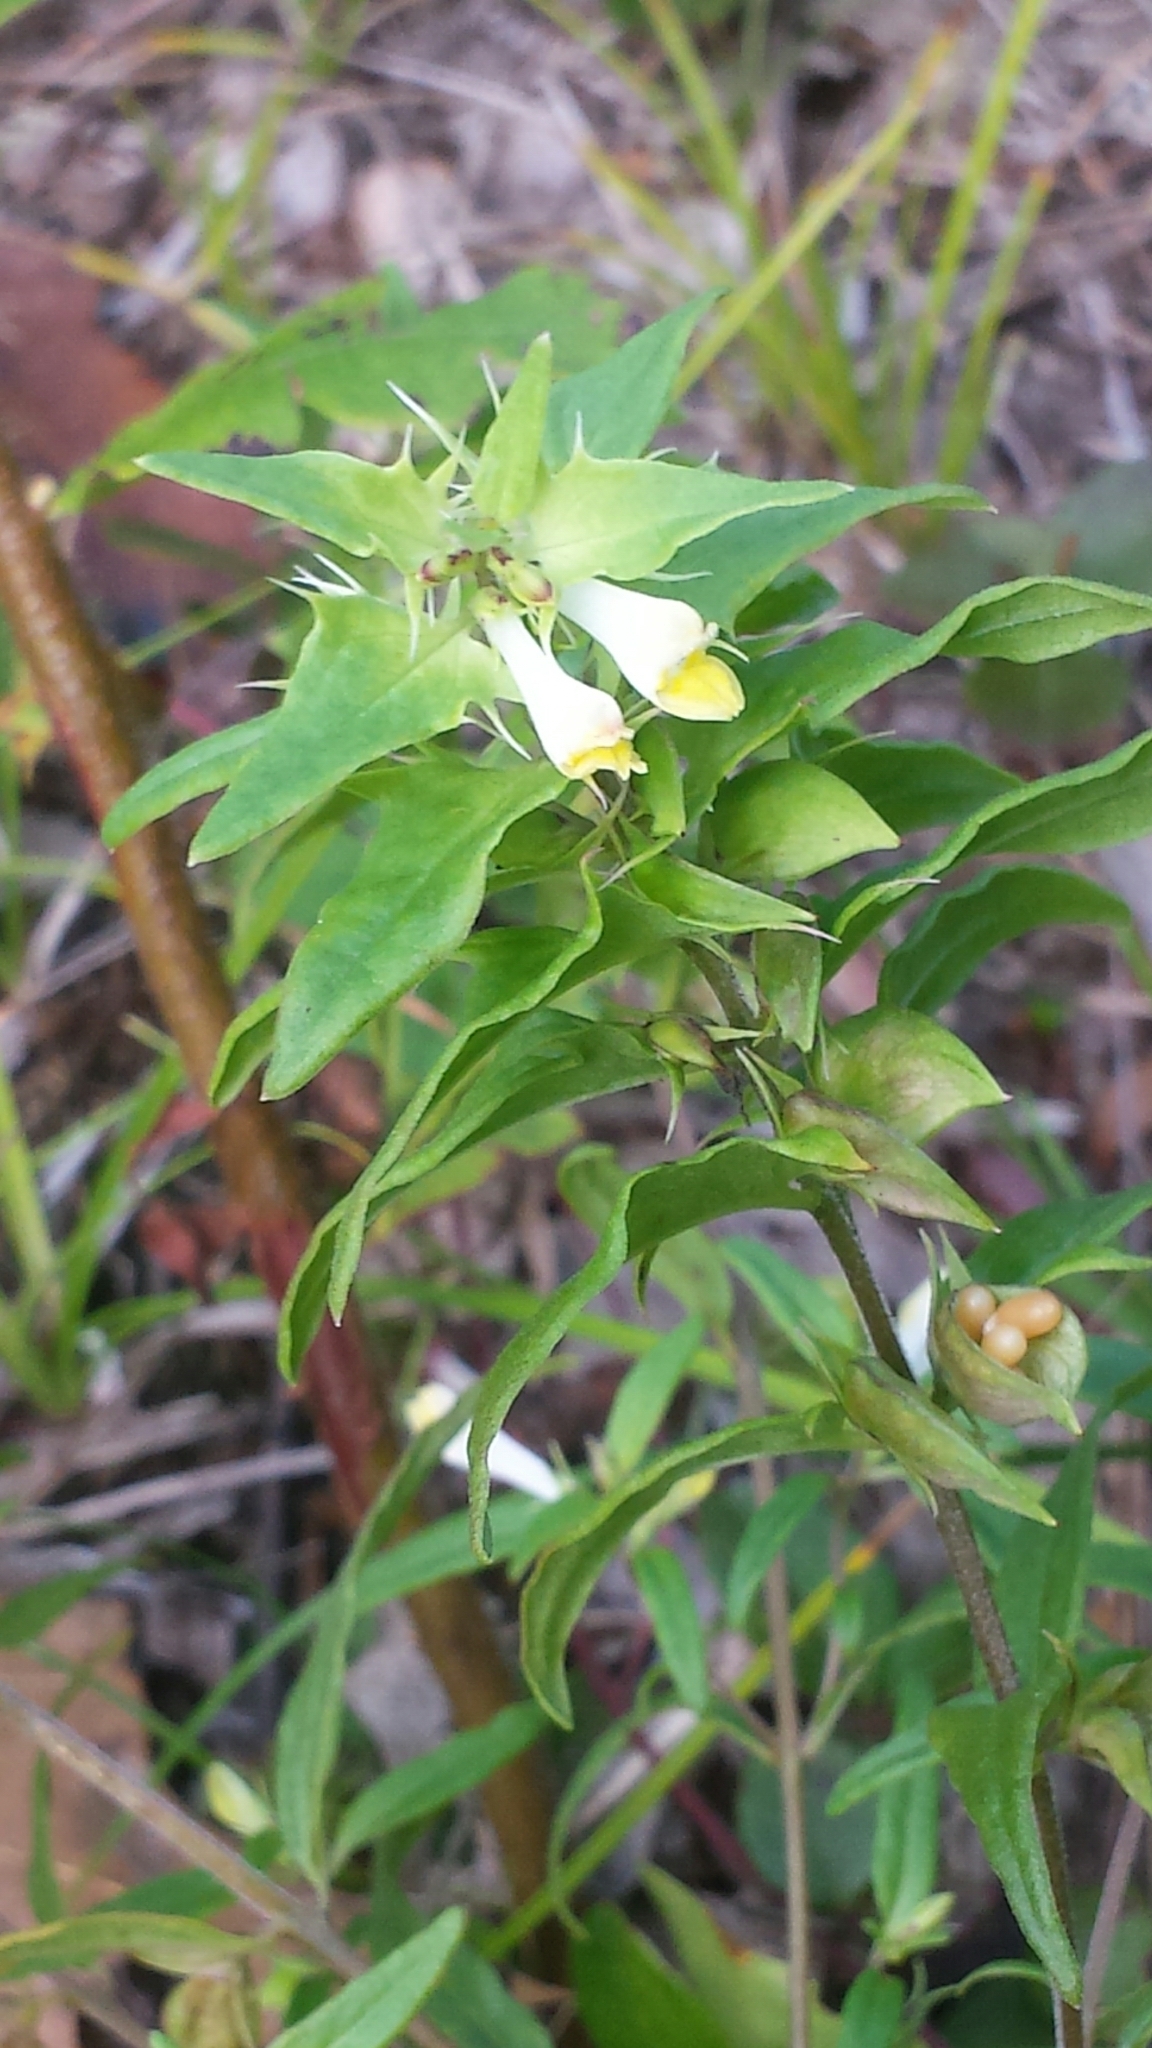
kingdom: Plantae
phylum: Tracheophyta
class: Magnoliopsida
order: Lamiales
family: Orobanchaceae
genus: Melampyrum
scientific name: Melampyrum lineare
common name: American cow-wheat
